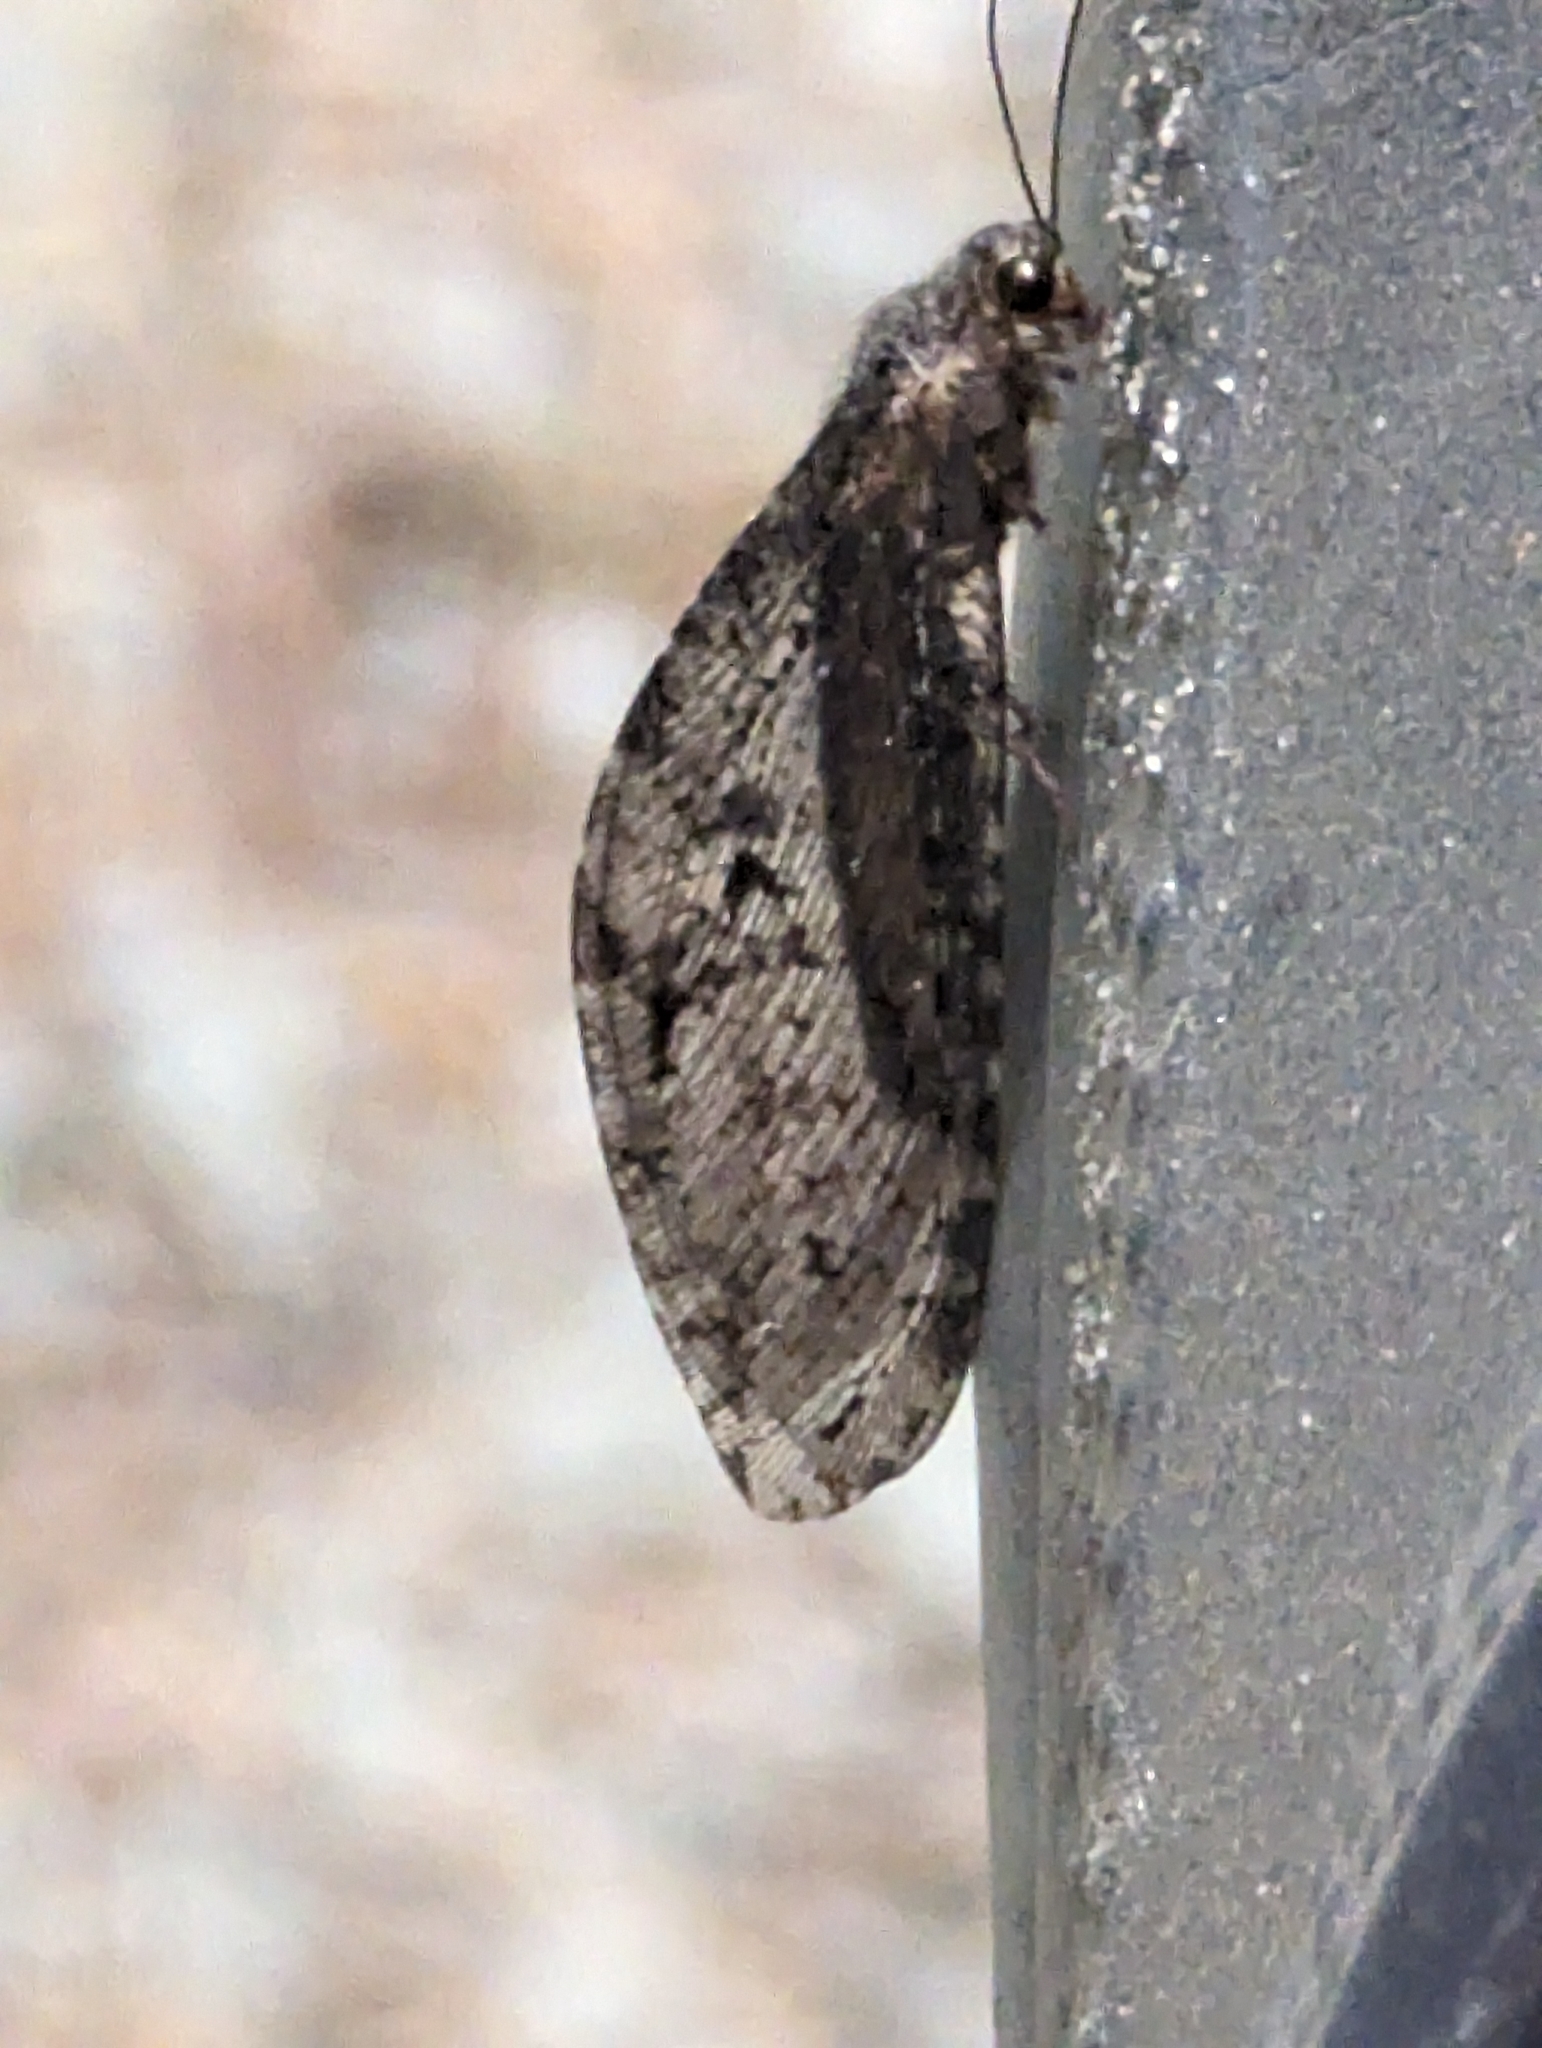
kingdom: Animalia
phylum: Arthropoda
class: Insecta
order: Neuroptera
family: Ithonidae
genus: Polystoechotes
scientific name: Polystoechotes punctata
